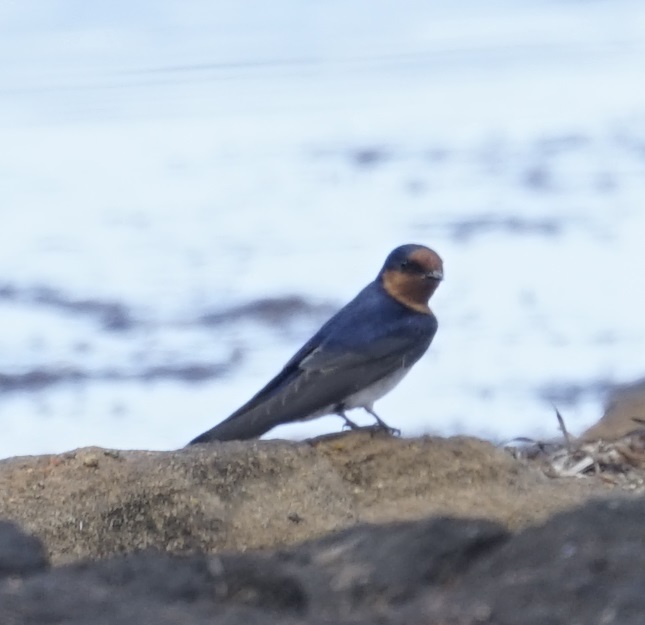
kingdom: Animalia
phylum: Chordata
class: Aves
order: Passeriformes
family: Hirundinidae
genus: Hirundo
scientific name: Hirundo neoxena
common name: Welcome swallow
